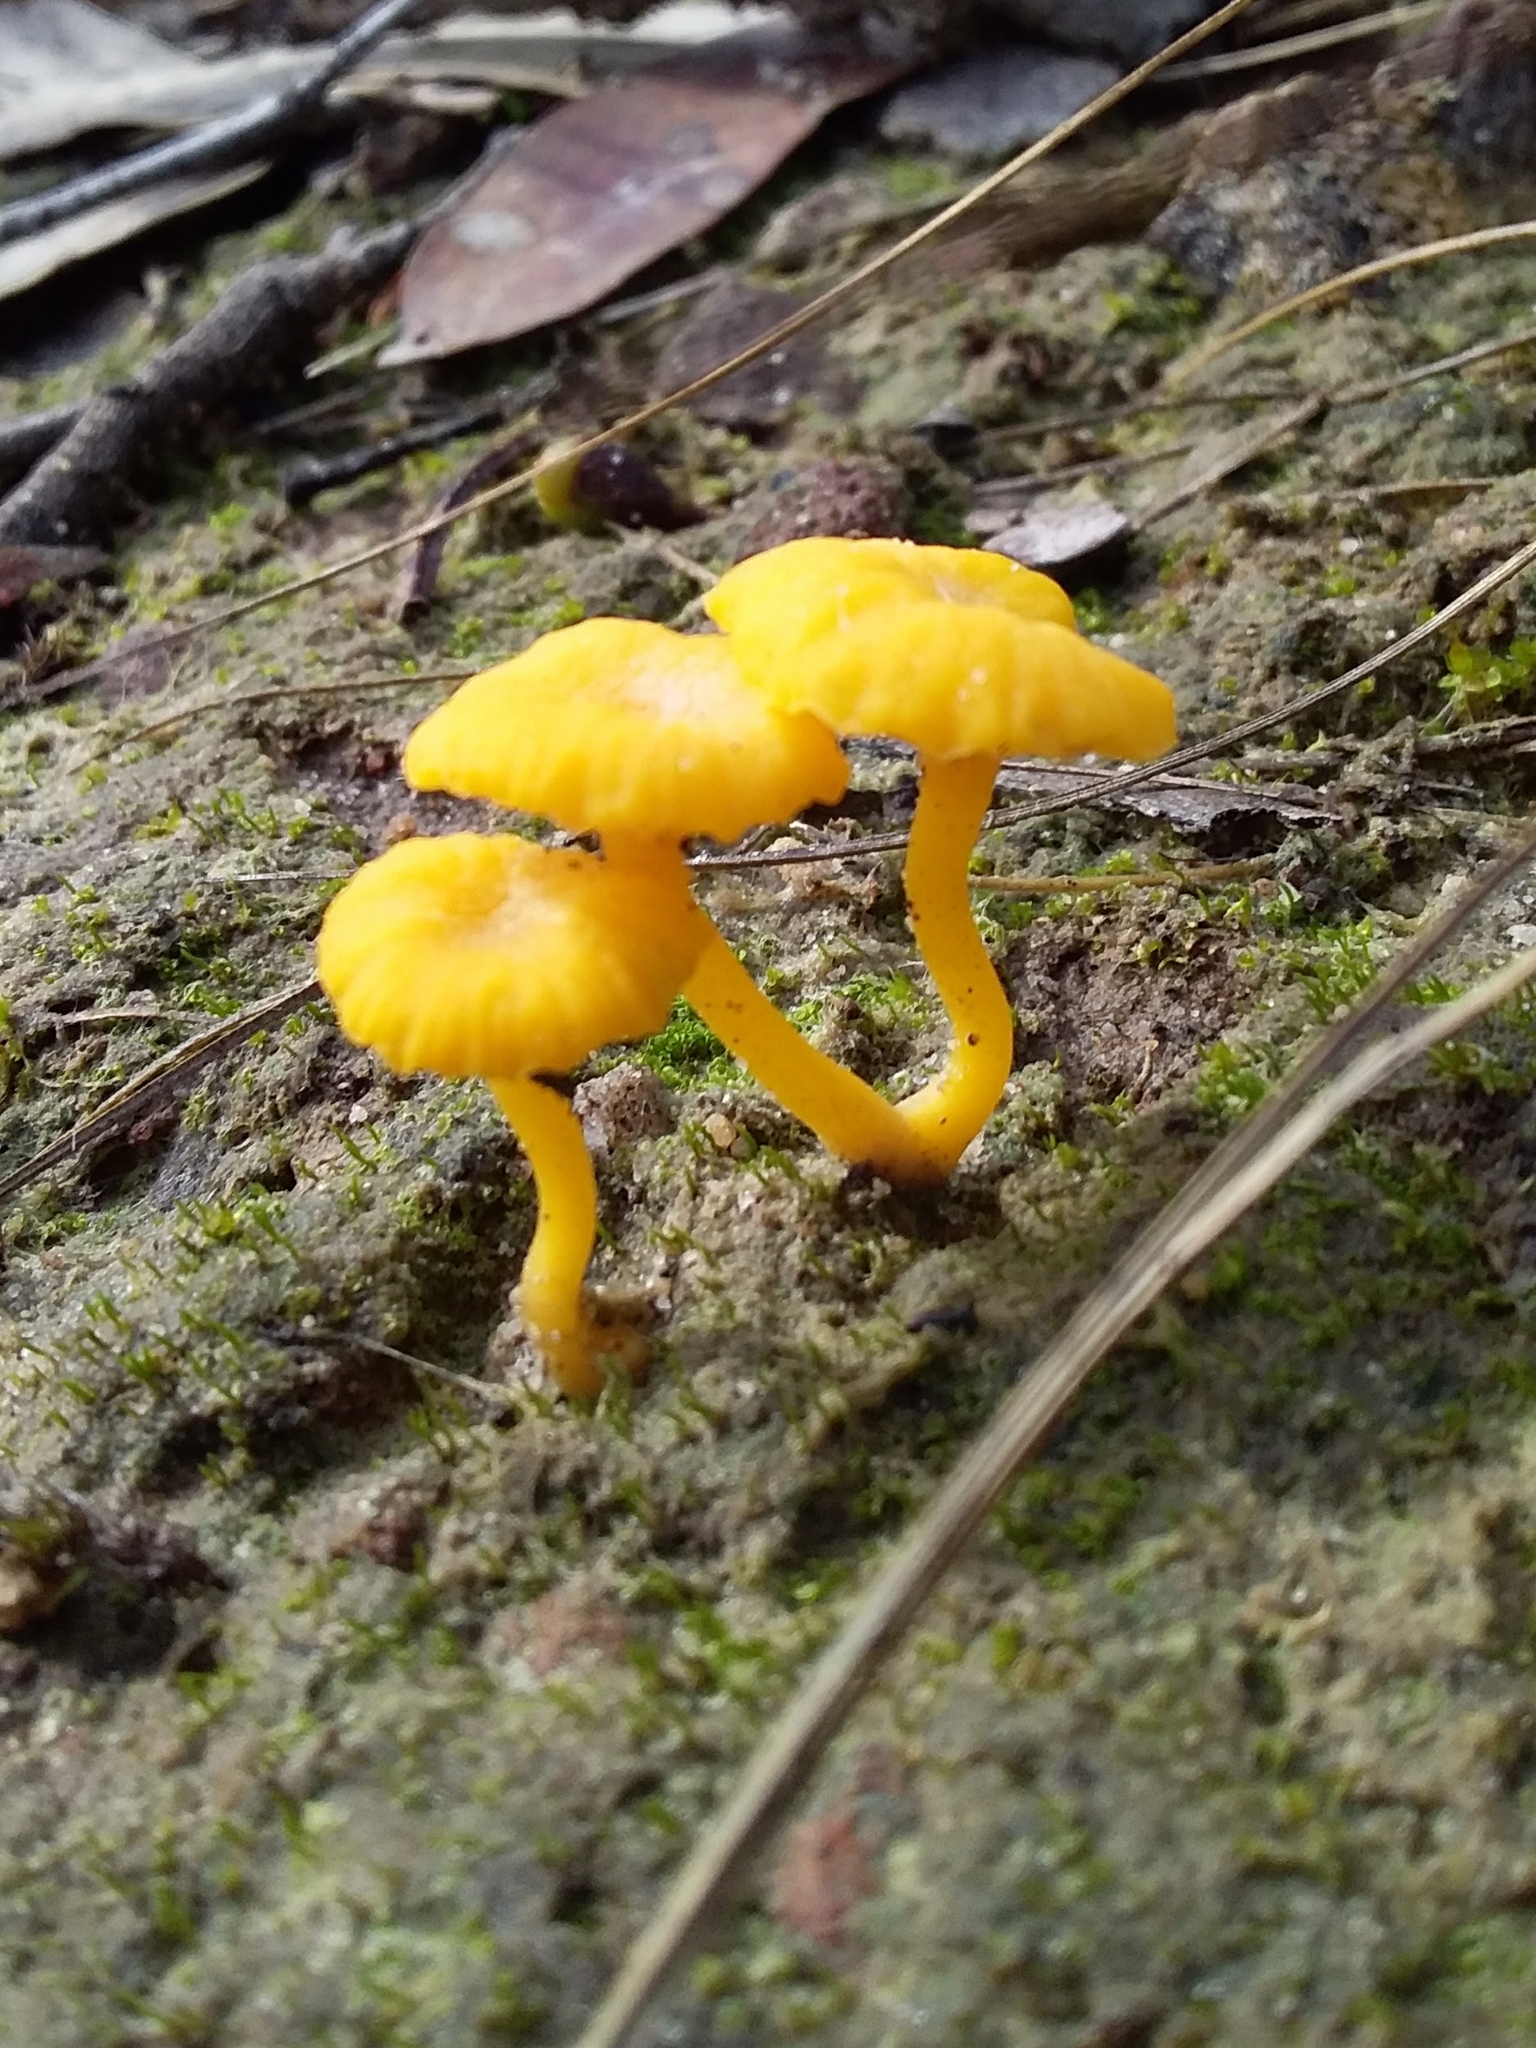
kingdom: Fungi
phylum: Basidiomycota
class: Agaricomycetes
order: Agaricales
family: Hygrophoraceae
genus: Lichenomphalia
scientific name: Lichenomphalia chromacea
